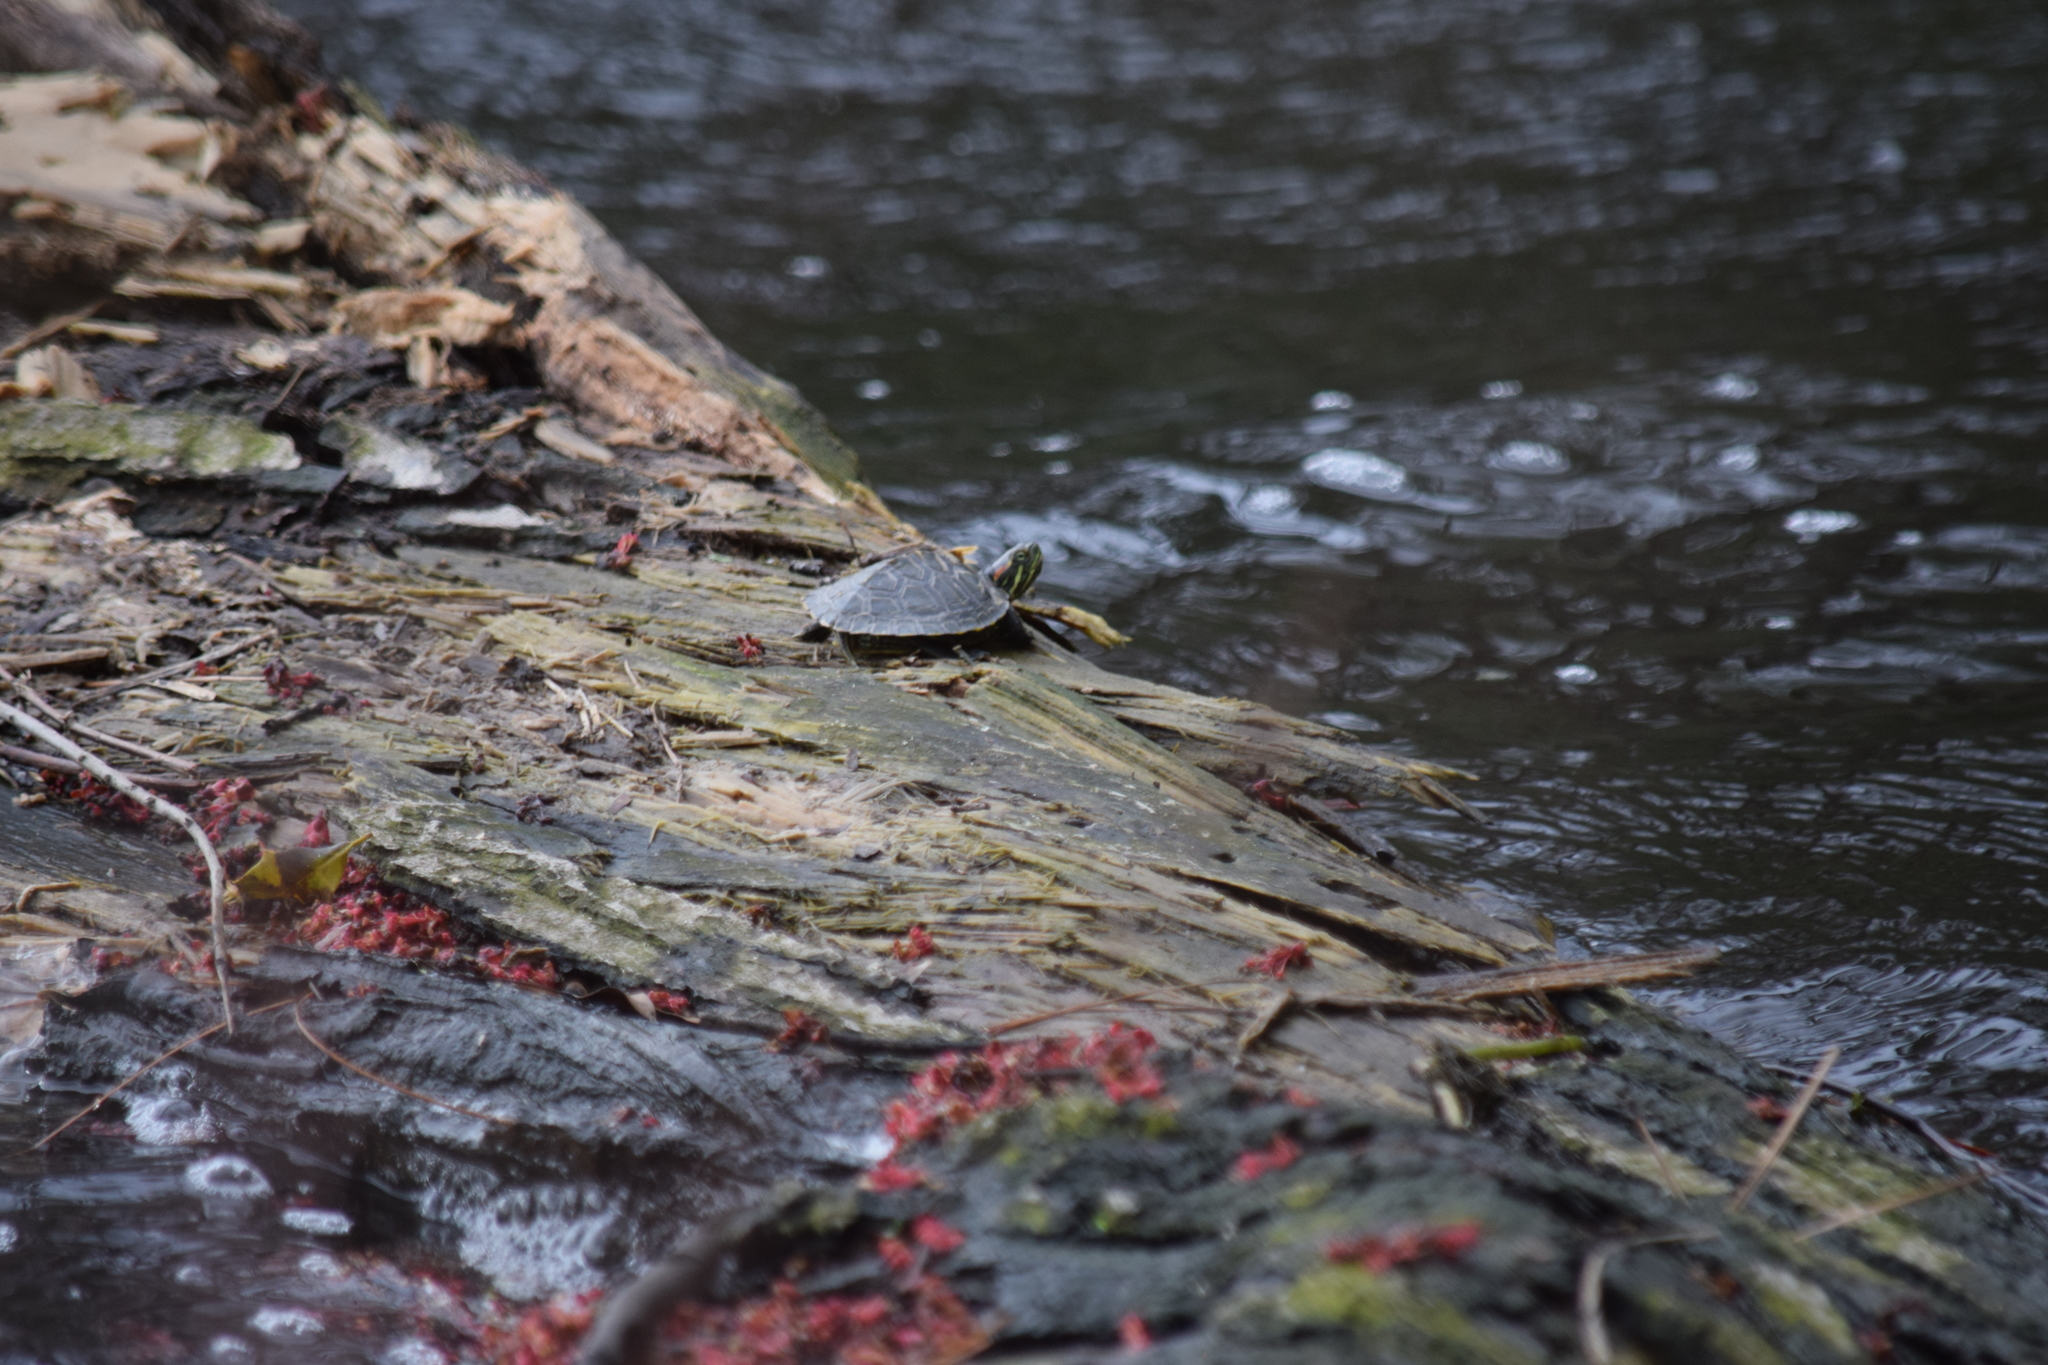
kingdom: Animalia
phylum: Chordata
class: Testudines
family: Emydidae
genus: Trachemys
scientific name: Trachemys scripta
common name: Slider
